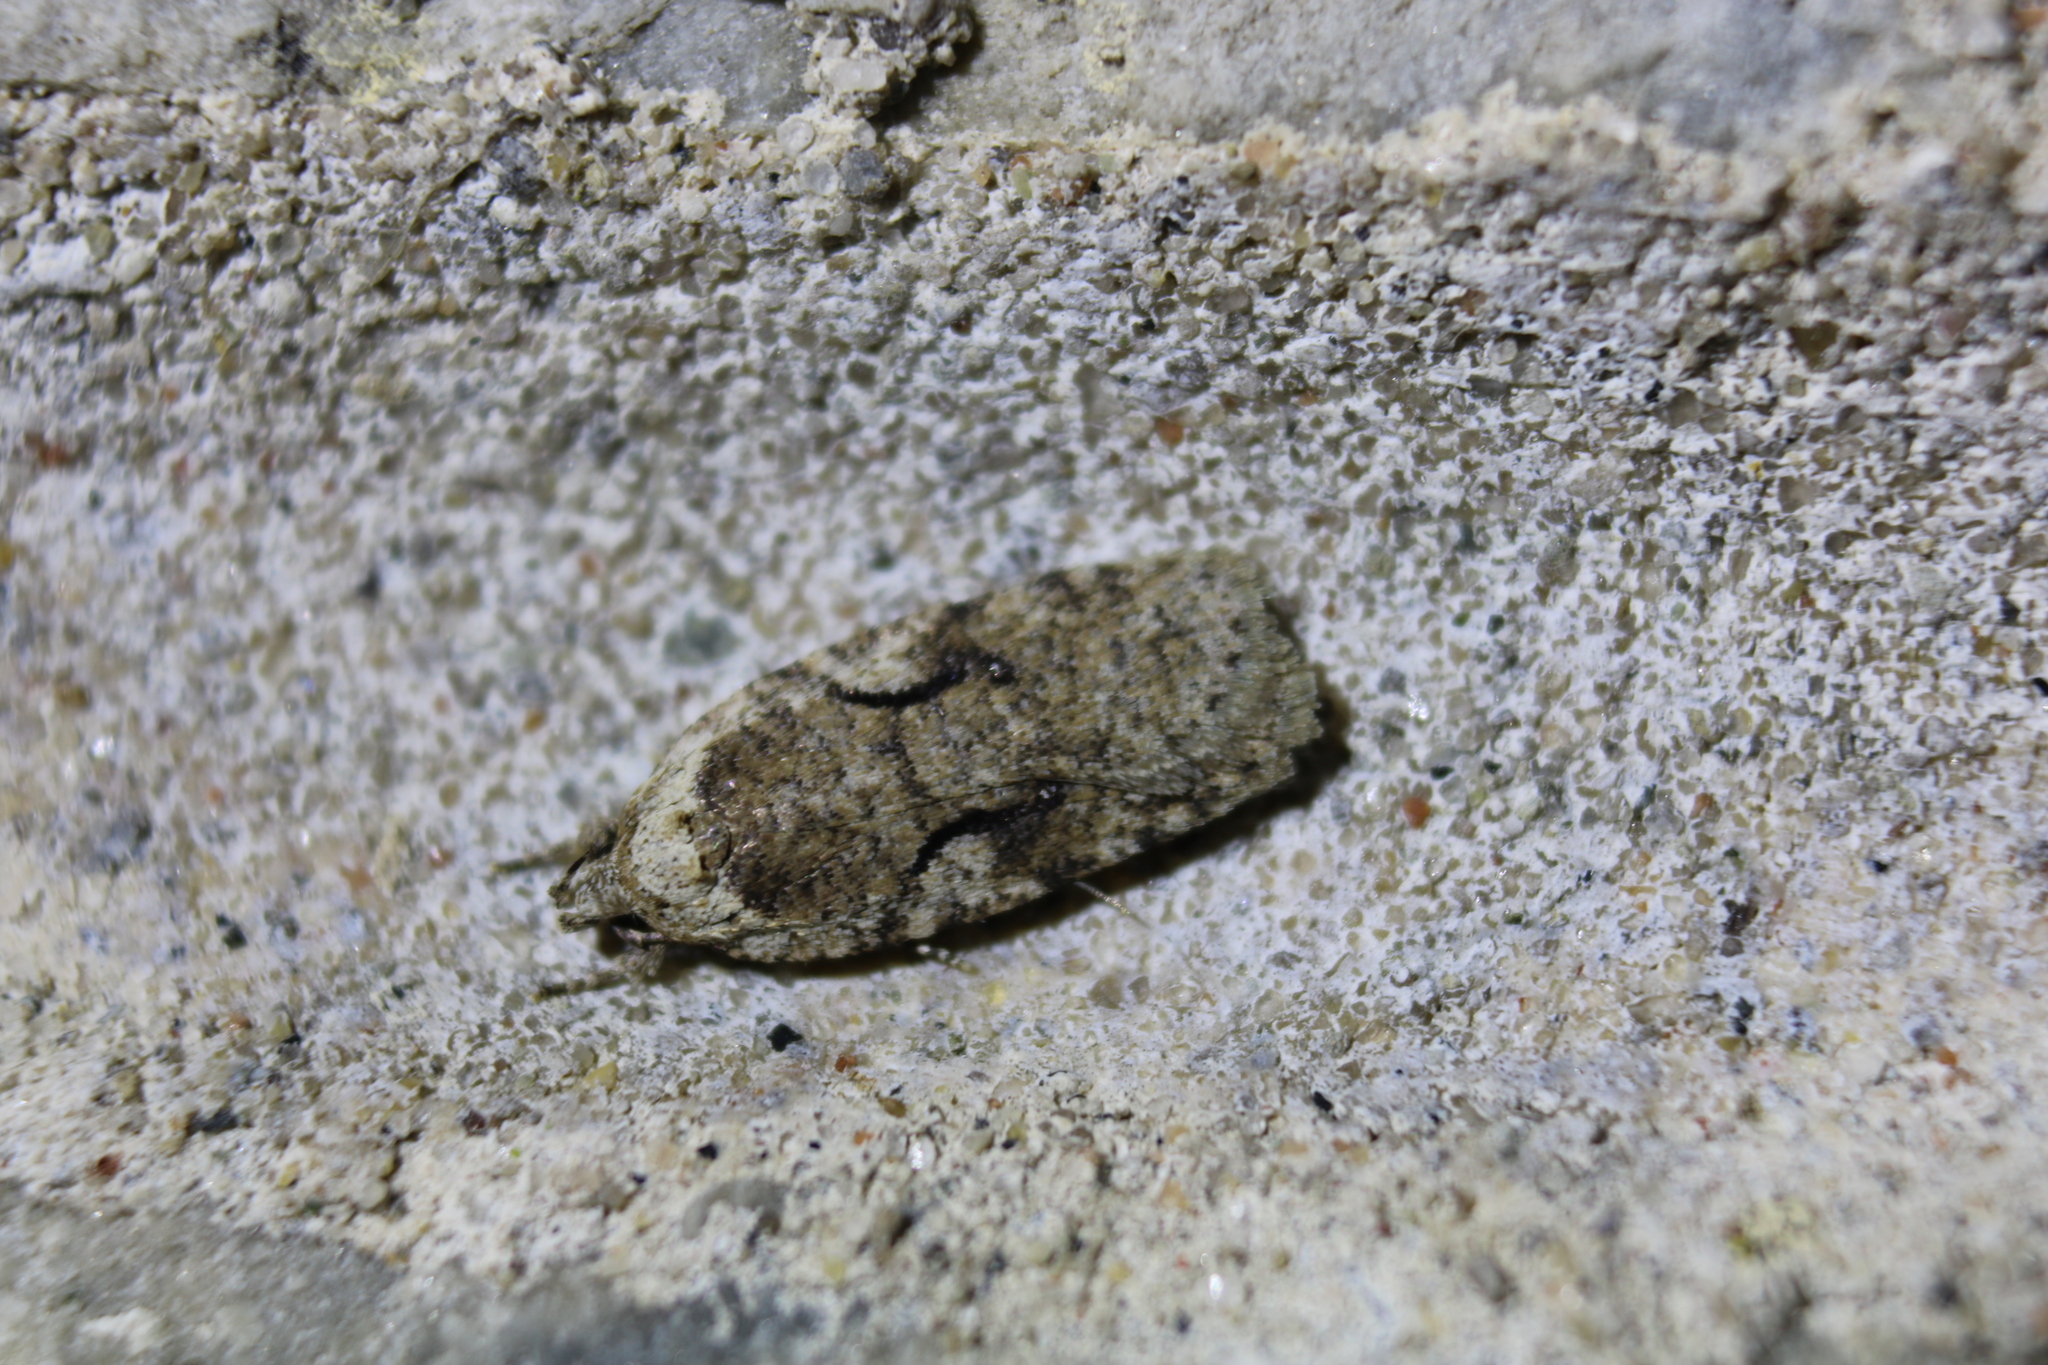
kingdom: Animalia
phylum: Arthropoda
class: Insecta
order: Lepidoptera
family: Depressariidae
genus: Agonopterix
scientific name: Agonopterix curvilineella
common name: Curved-line agonopterix moth
